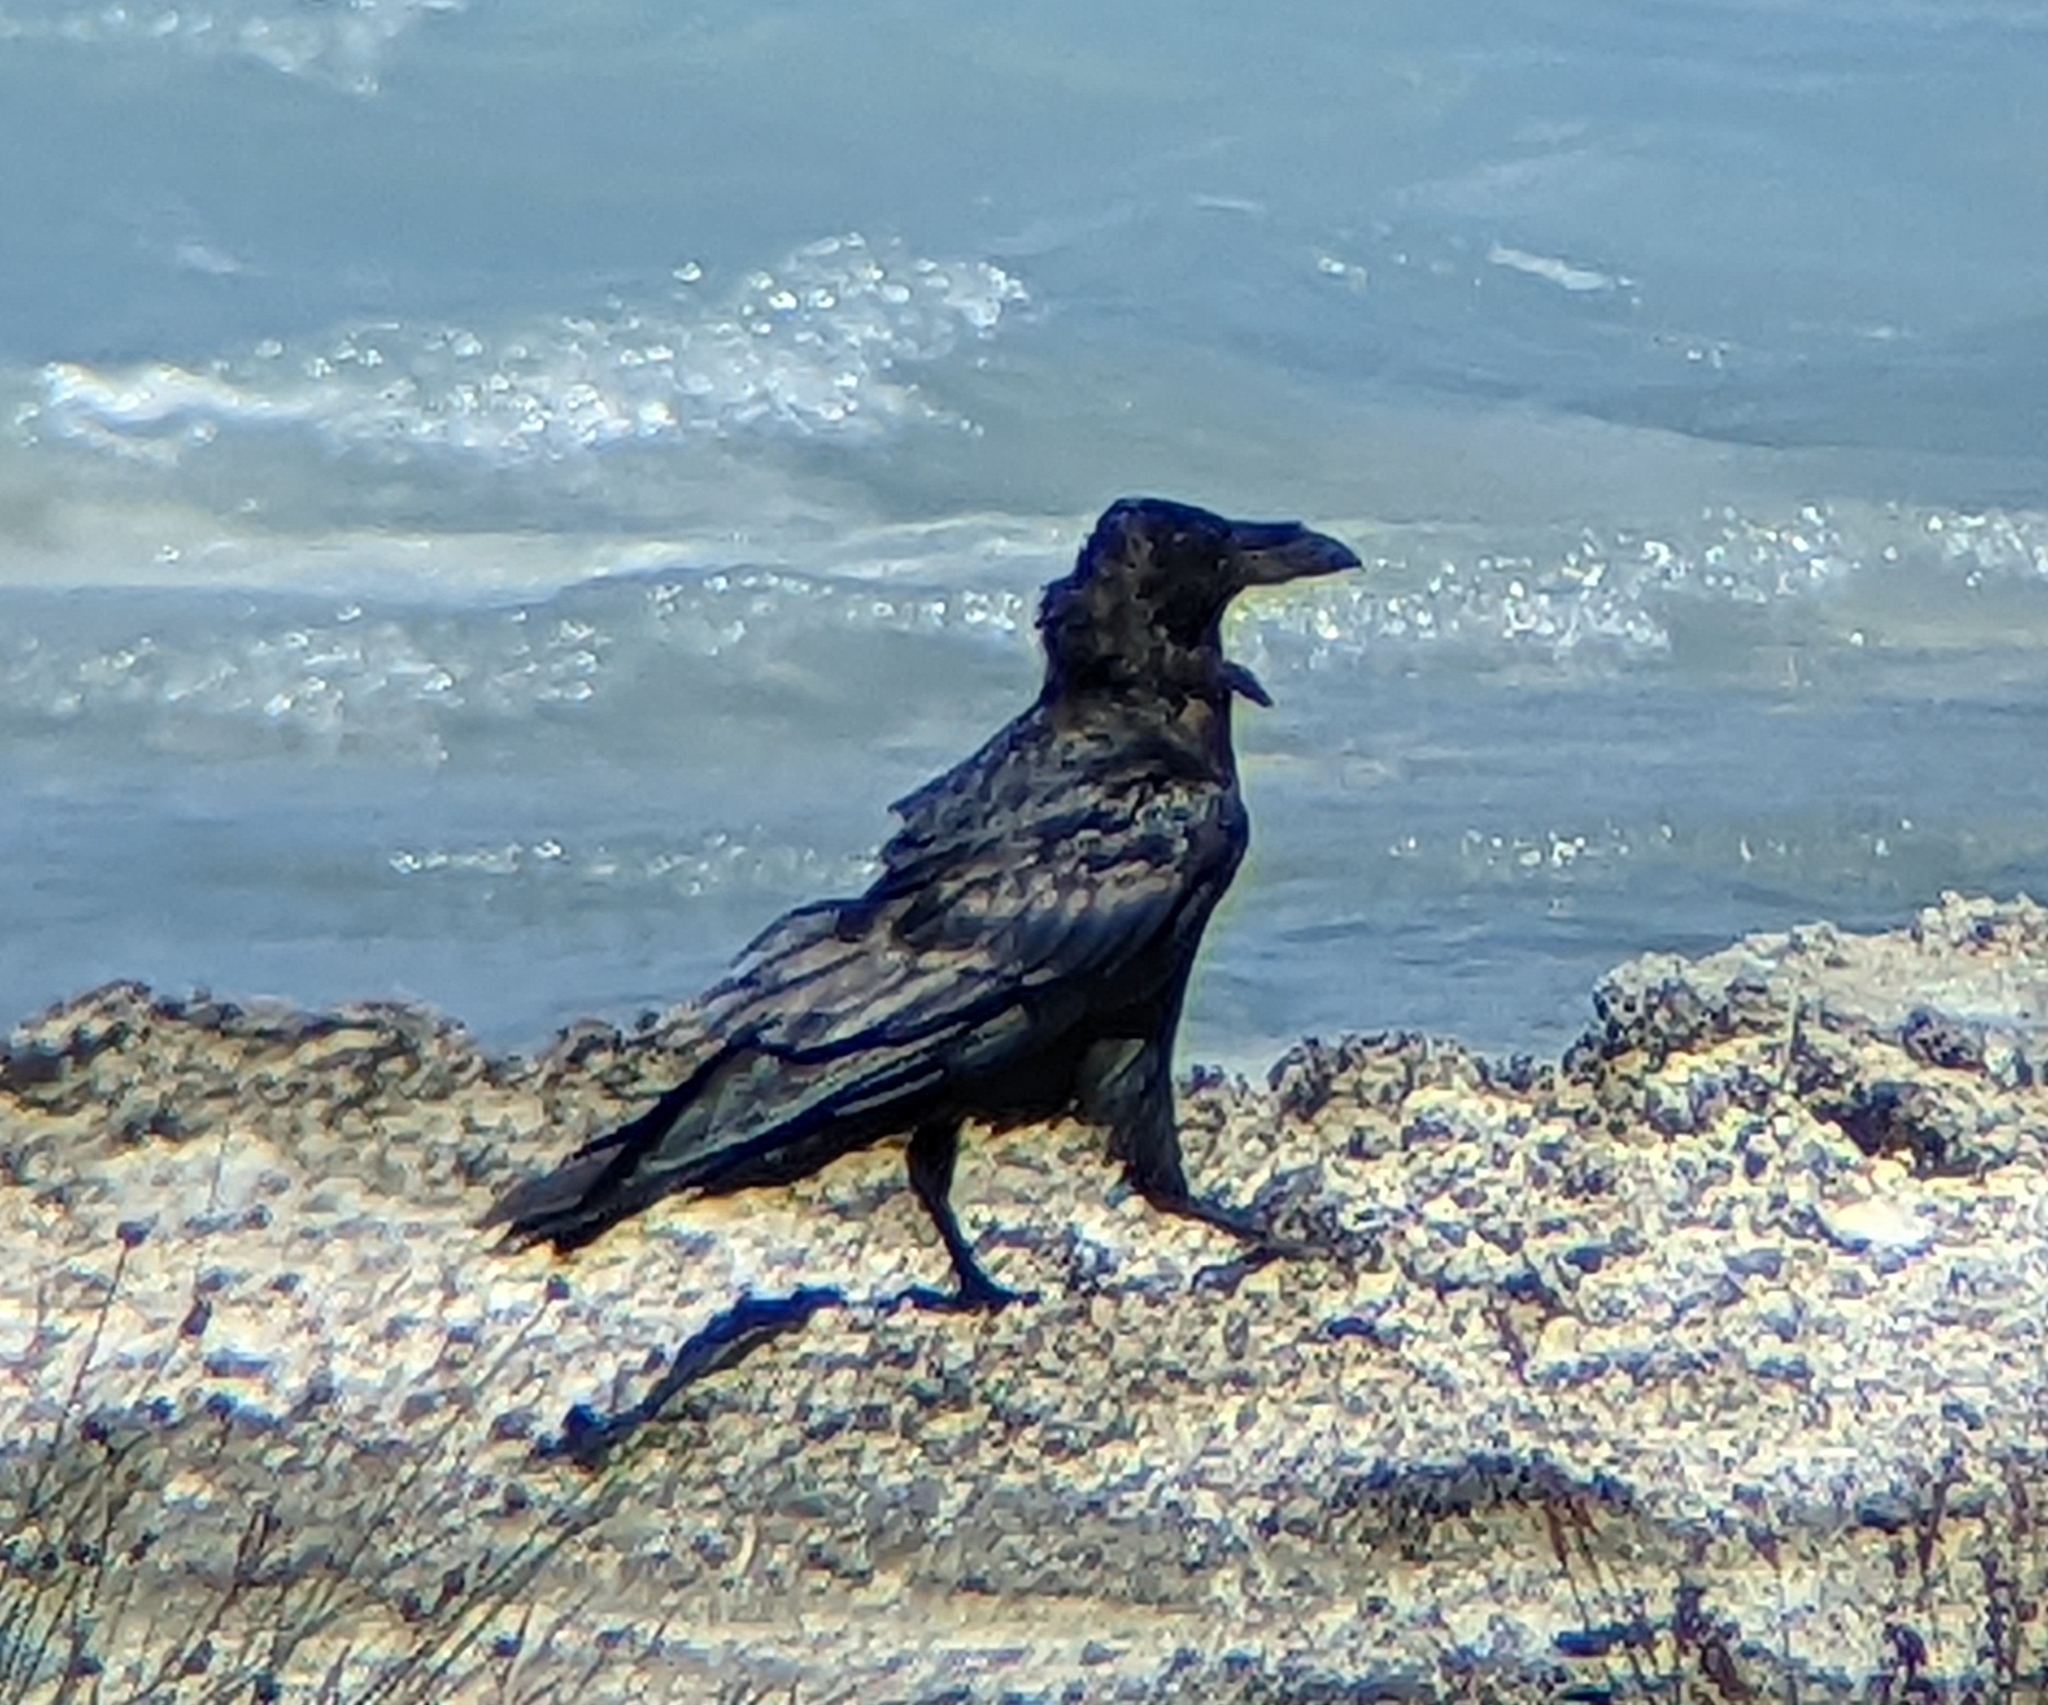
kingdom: Animalia
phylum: Chordata
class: Aves
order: Passeriformes
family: Corvidae
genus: Corvus
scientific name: Corvus corax
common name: Common raven
